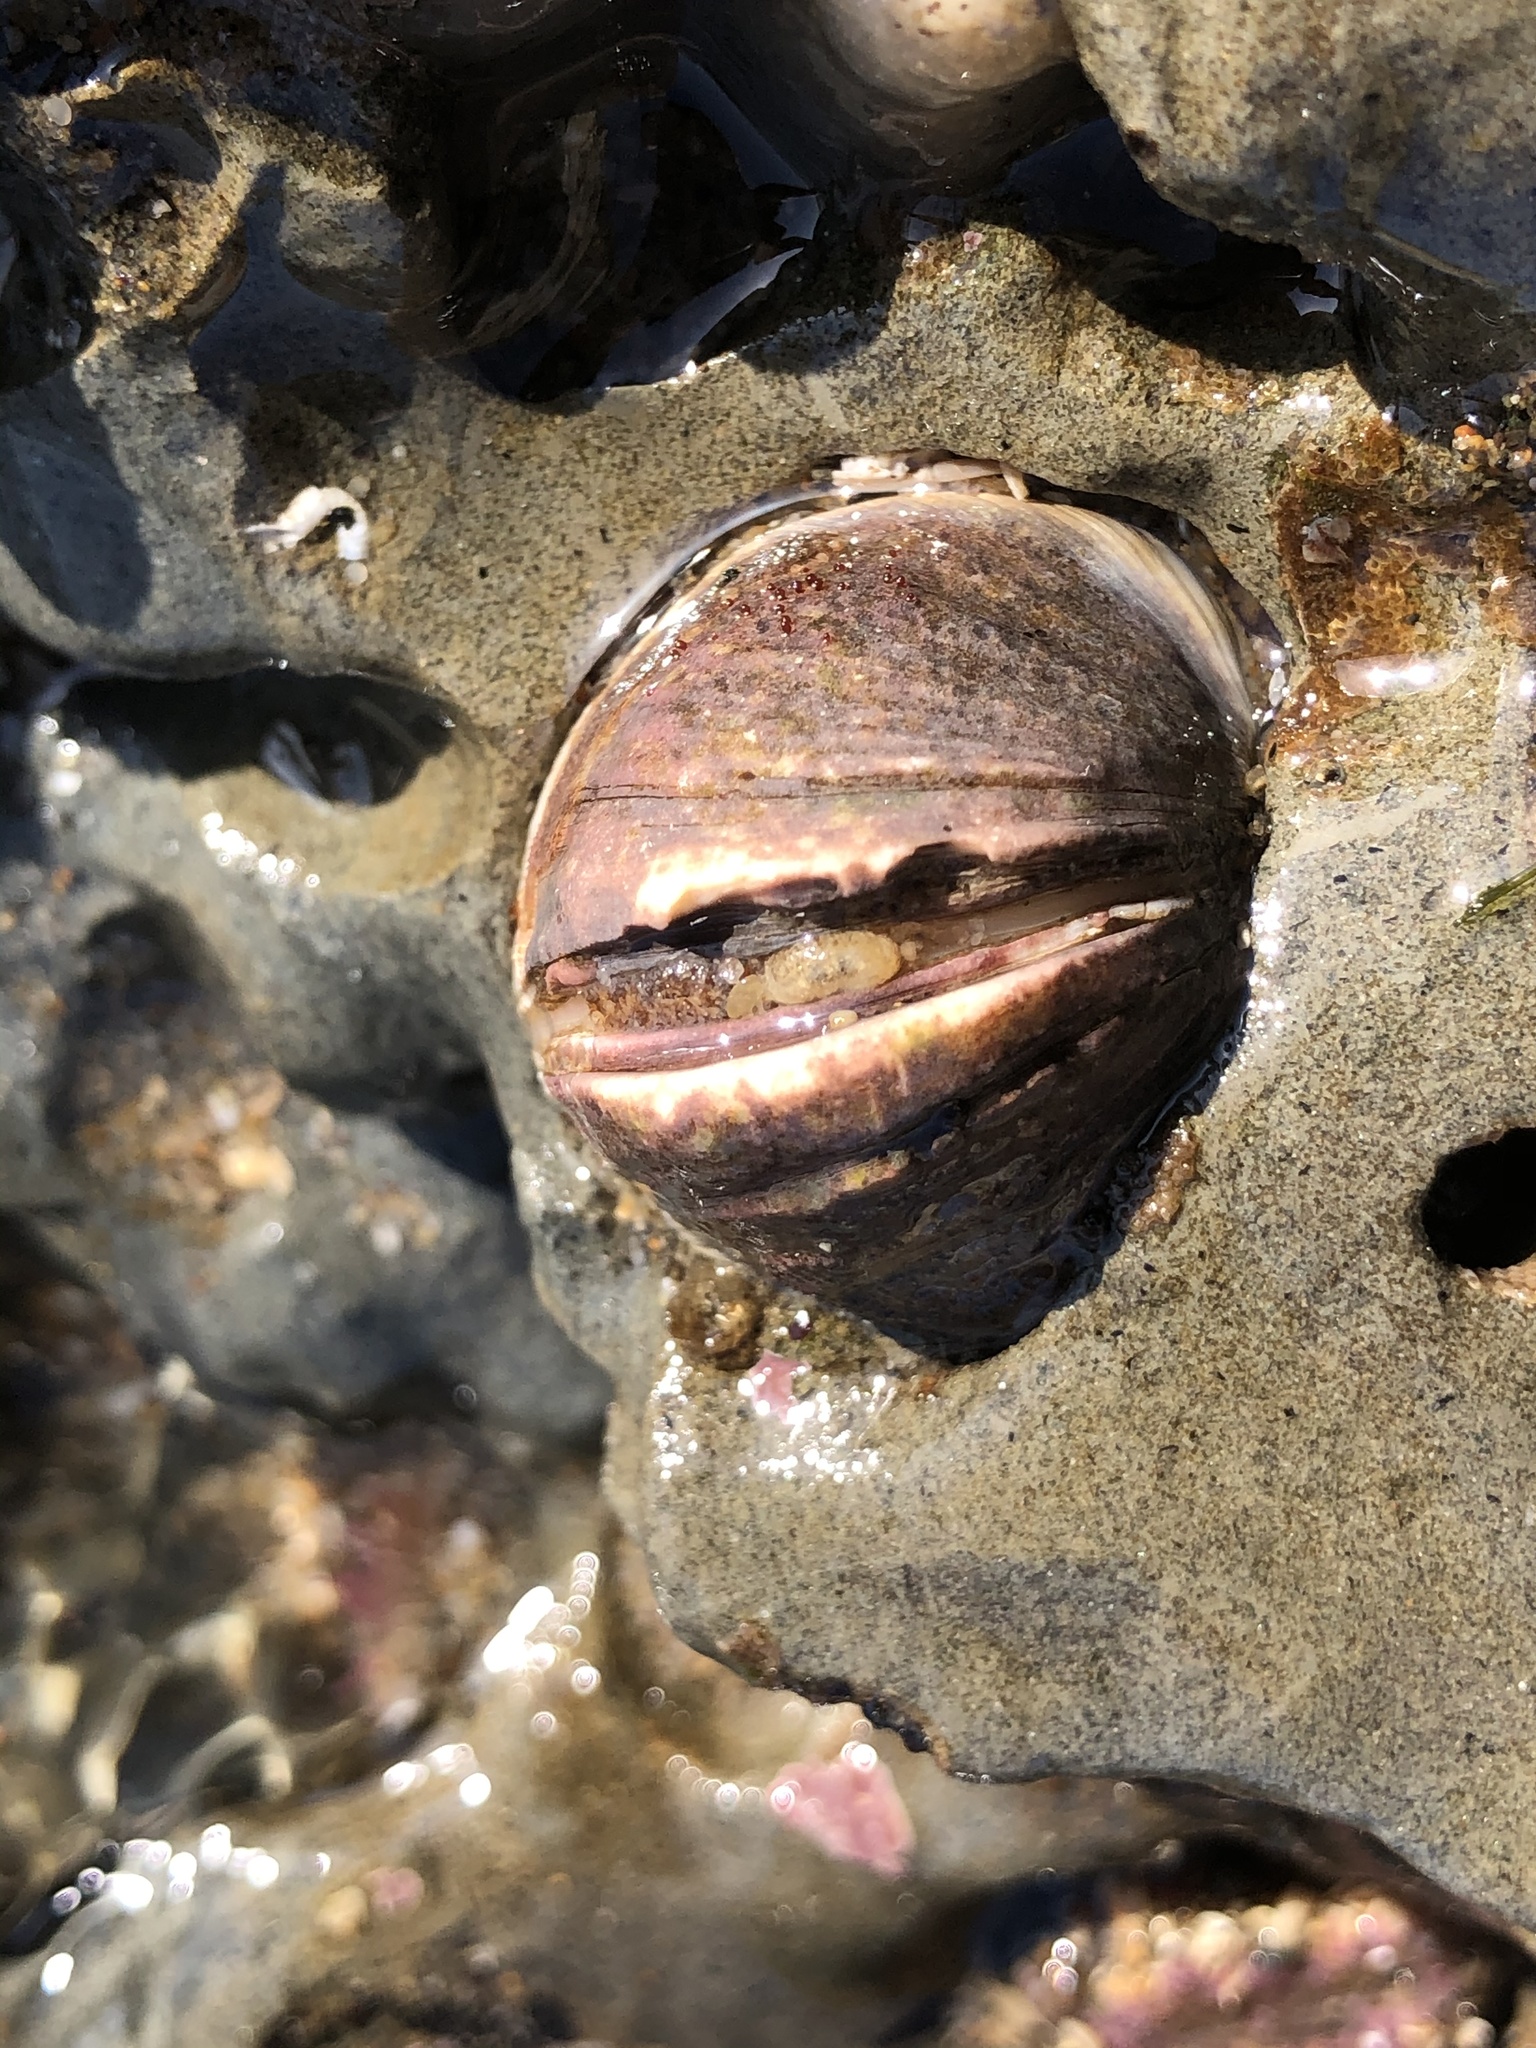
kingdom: Animalia
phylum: Mollusca
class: Bivalvia
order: Venerida
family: Veneridae
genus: Petricola
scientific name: Petricola carditoides
